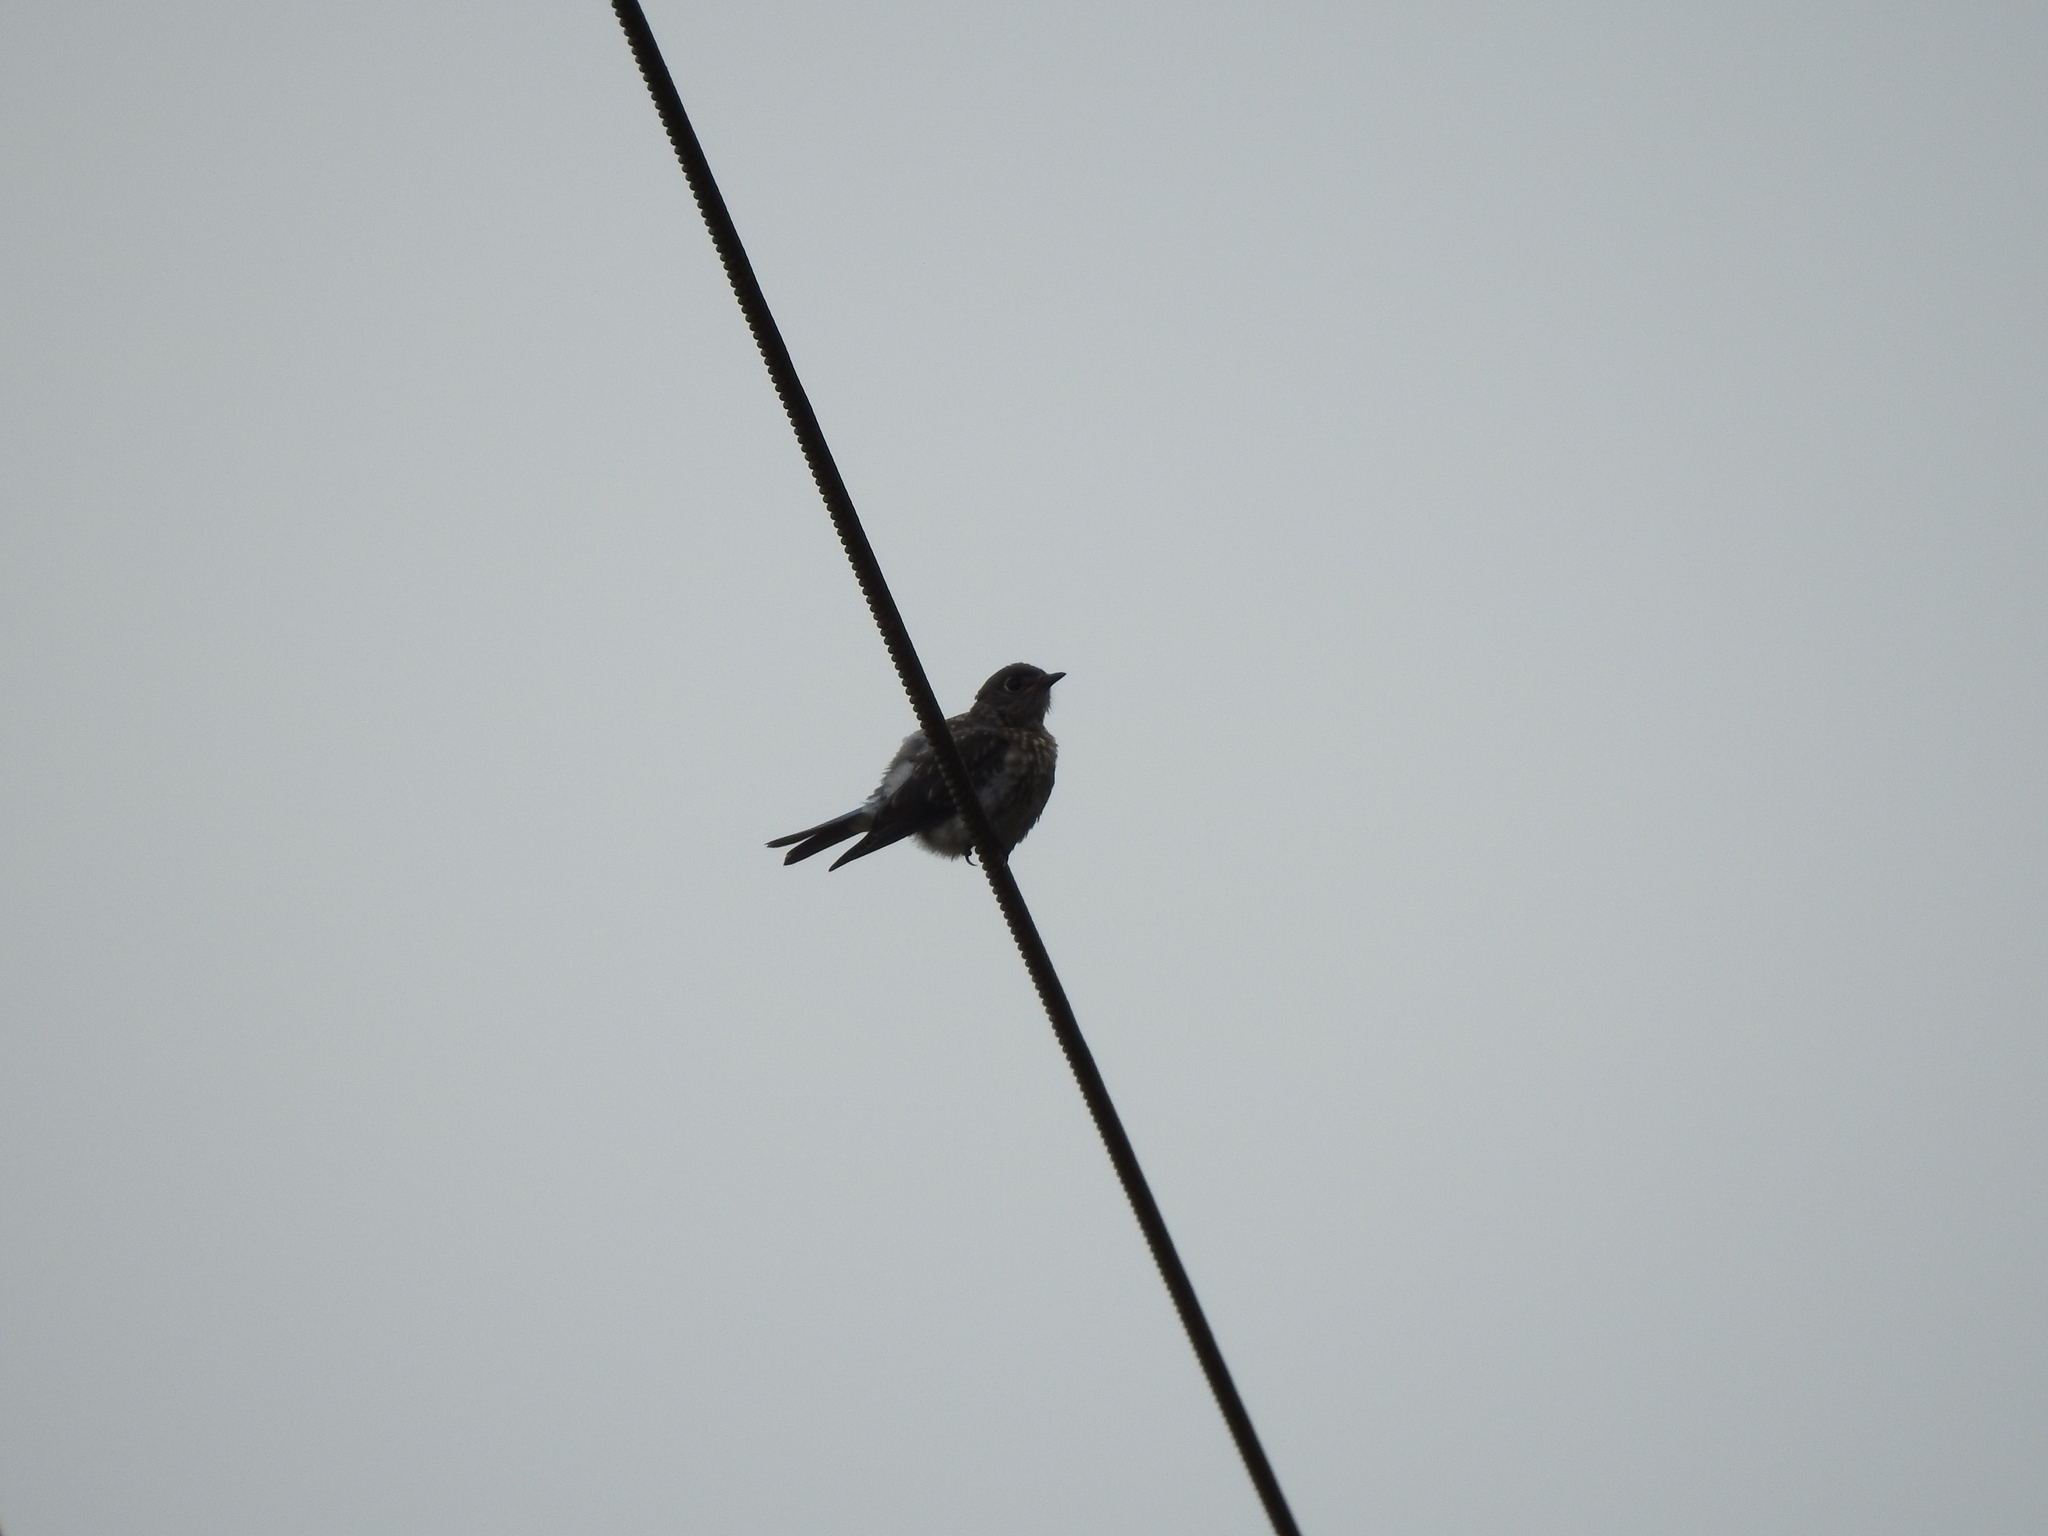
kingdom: Animalia
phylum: Chordata
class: Aves
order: Passeriformes
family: Turdidae
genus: Sialia
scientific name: Sialia sialis
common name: Eastern bluebird
